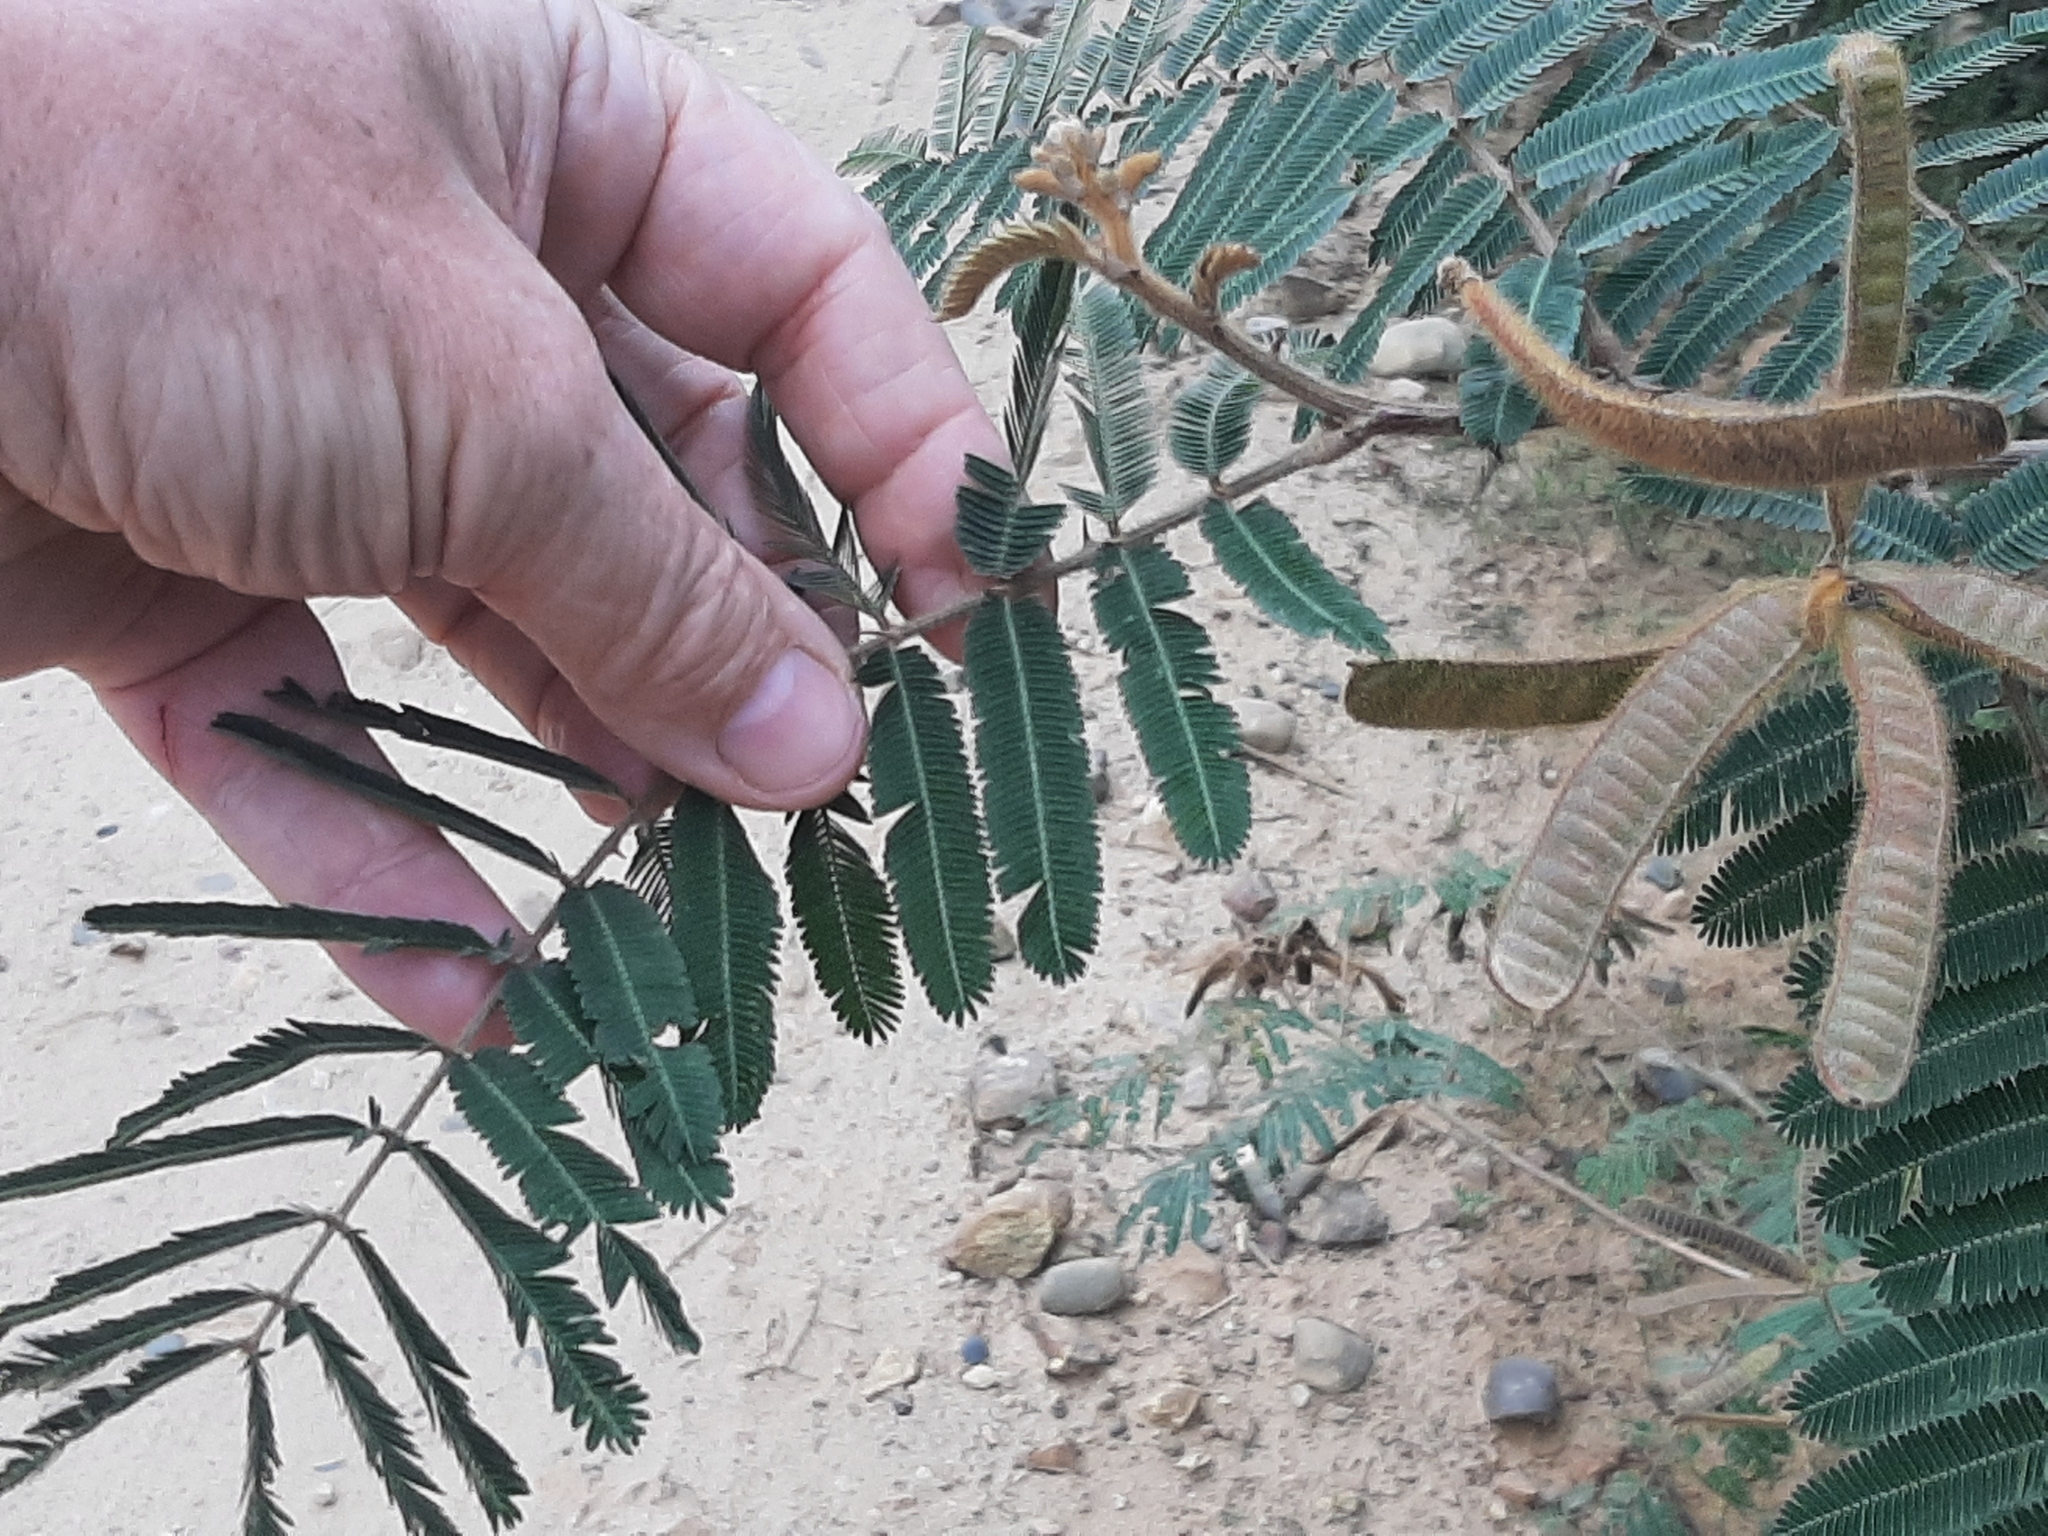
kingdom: Plantae
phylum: Tracheophyta
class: Magnoliopsida
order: Fabales
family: Fabaceae
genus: Mimosa
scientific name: Mimosa pigra
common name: Black mimosa
